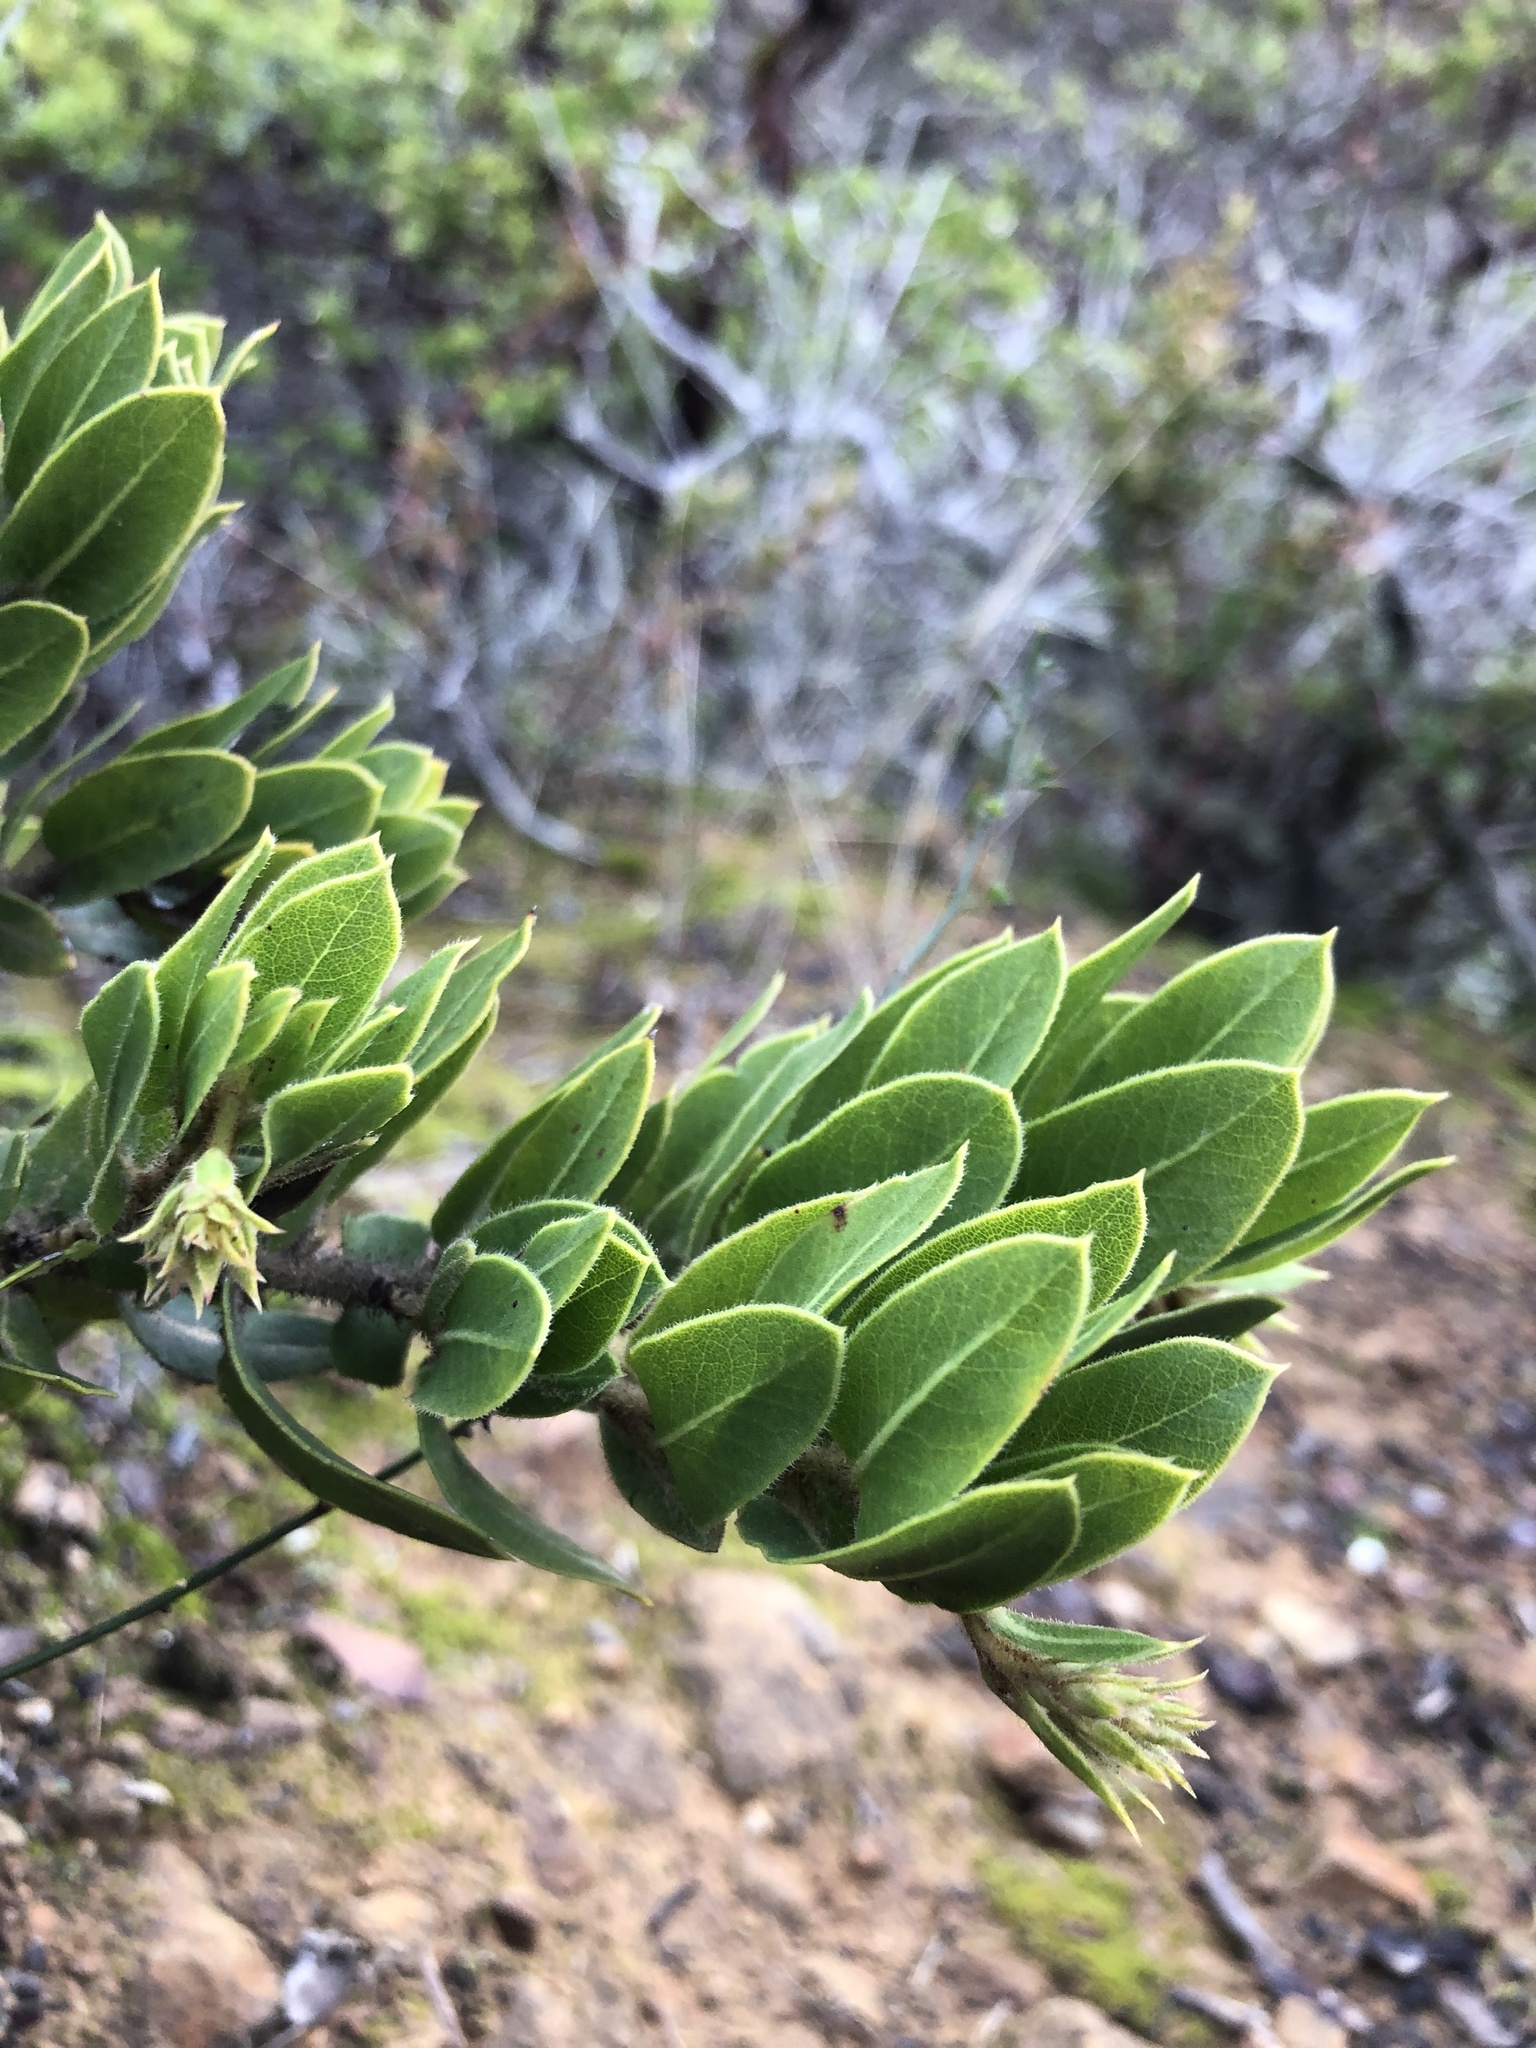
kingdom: Plantae
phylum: Tracheophyta
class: Magnoliopsida
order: Ericales
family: Ericaceae
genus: Arctostaphylos
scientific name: Arctostaphylos montaraensis
